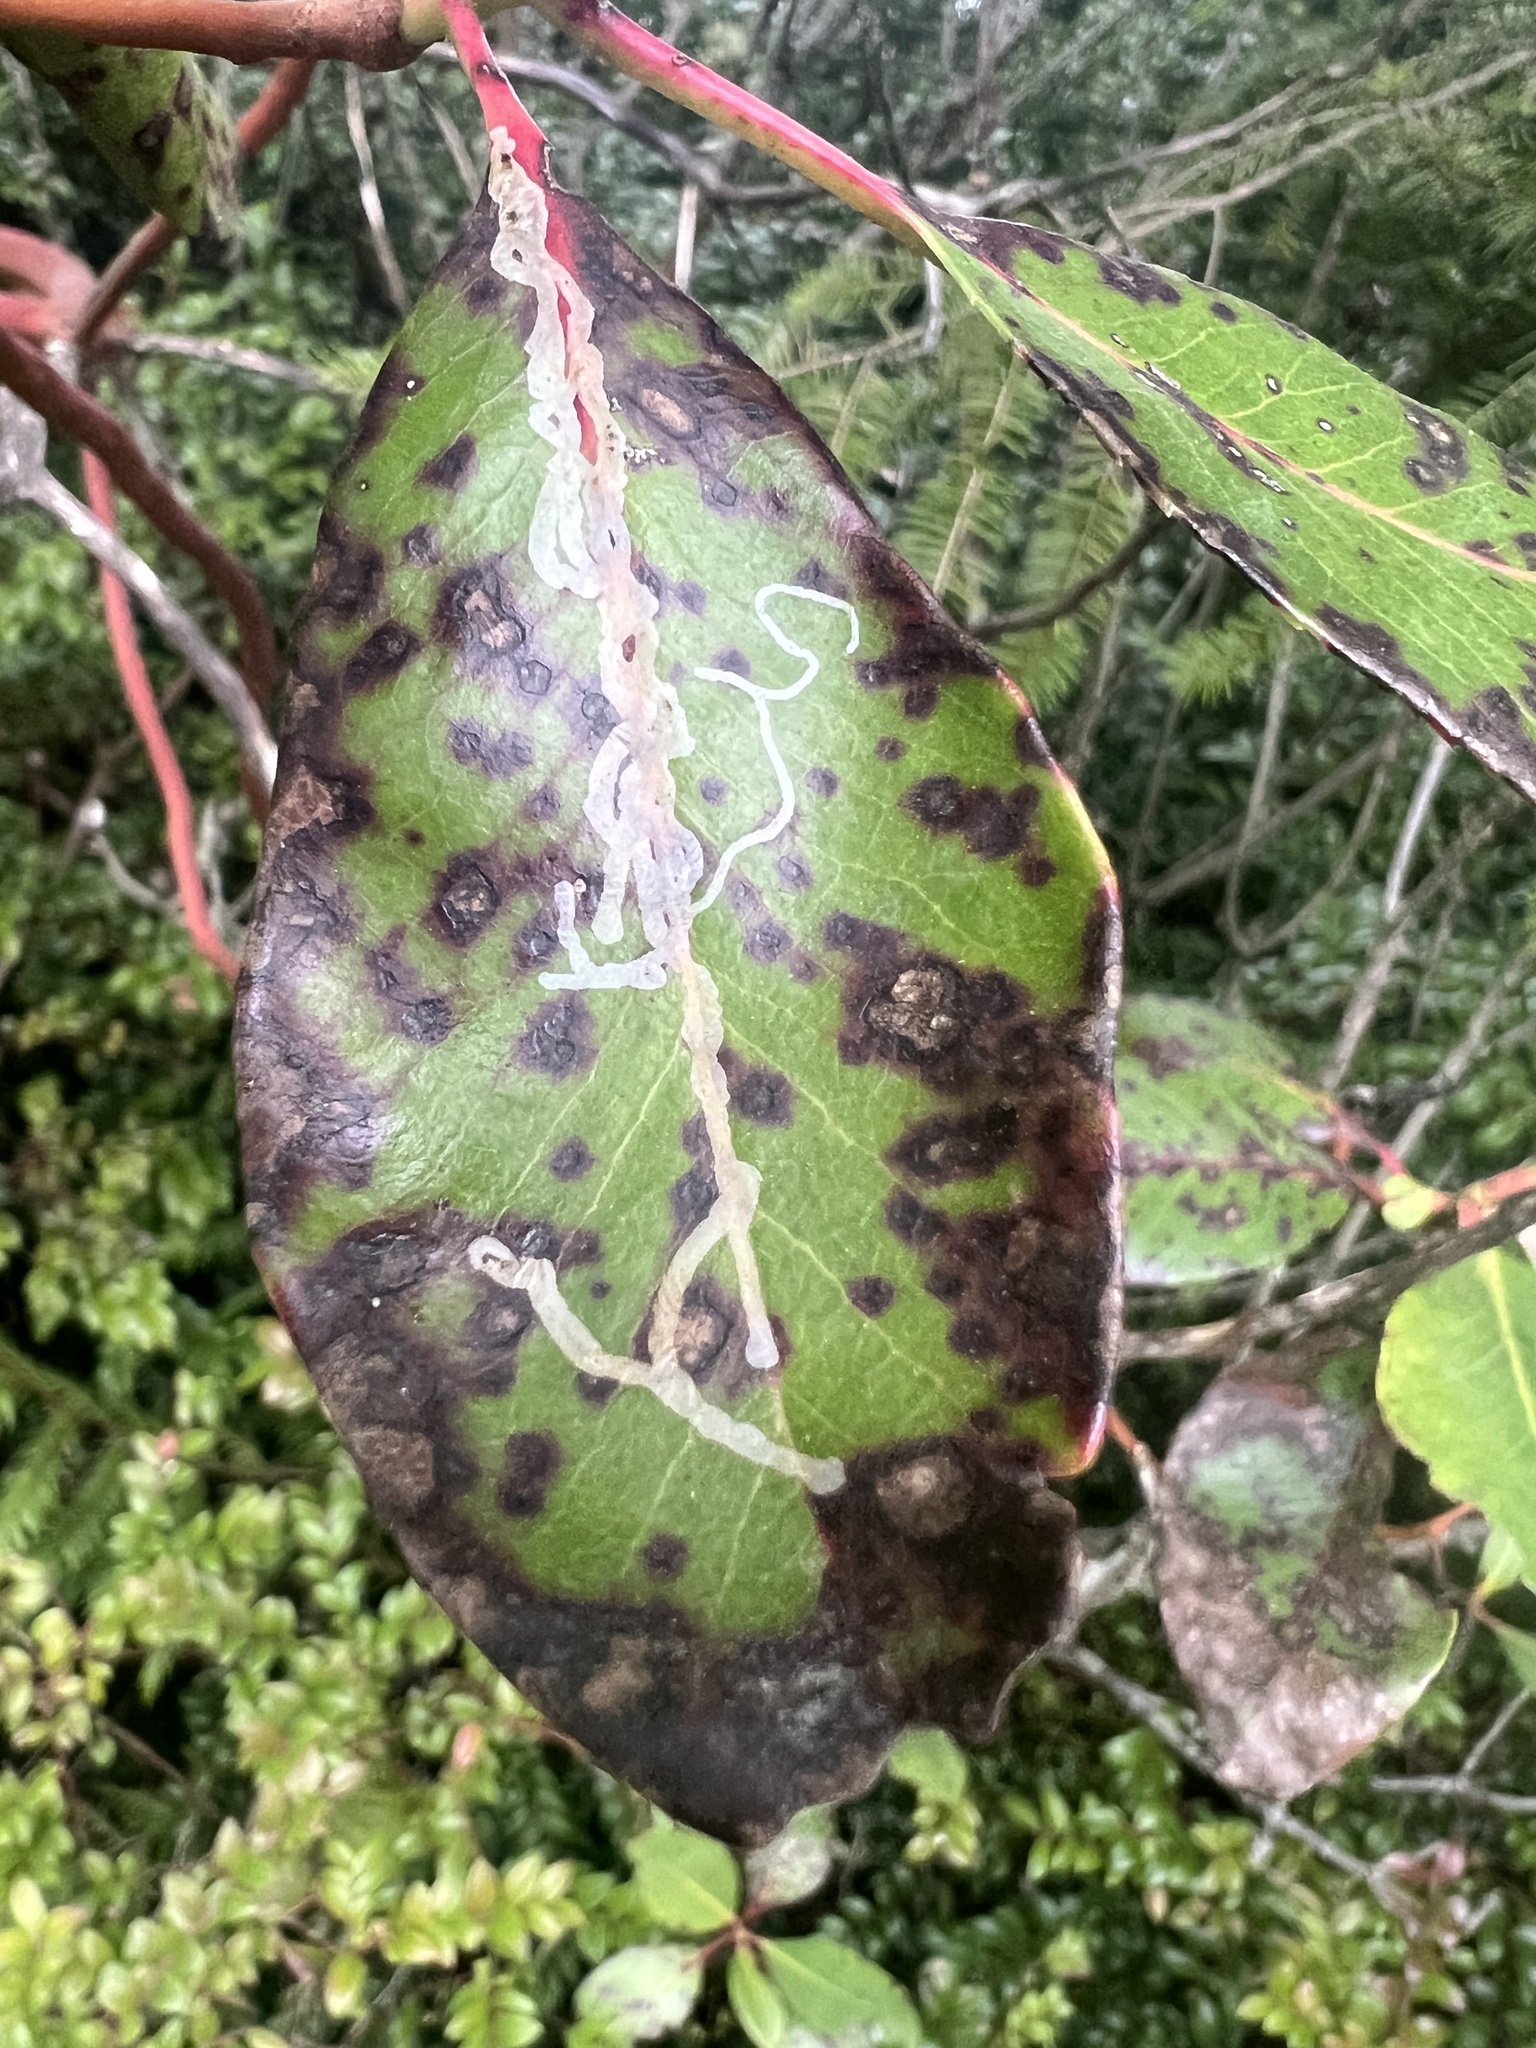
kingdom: Animalia
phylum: Arthropoda
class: Insecta
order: Lepidoptera
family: Gracillariidae
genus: Marmara
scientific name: Marmara arbutiella
